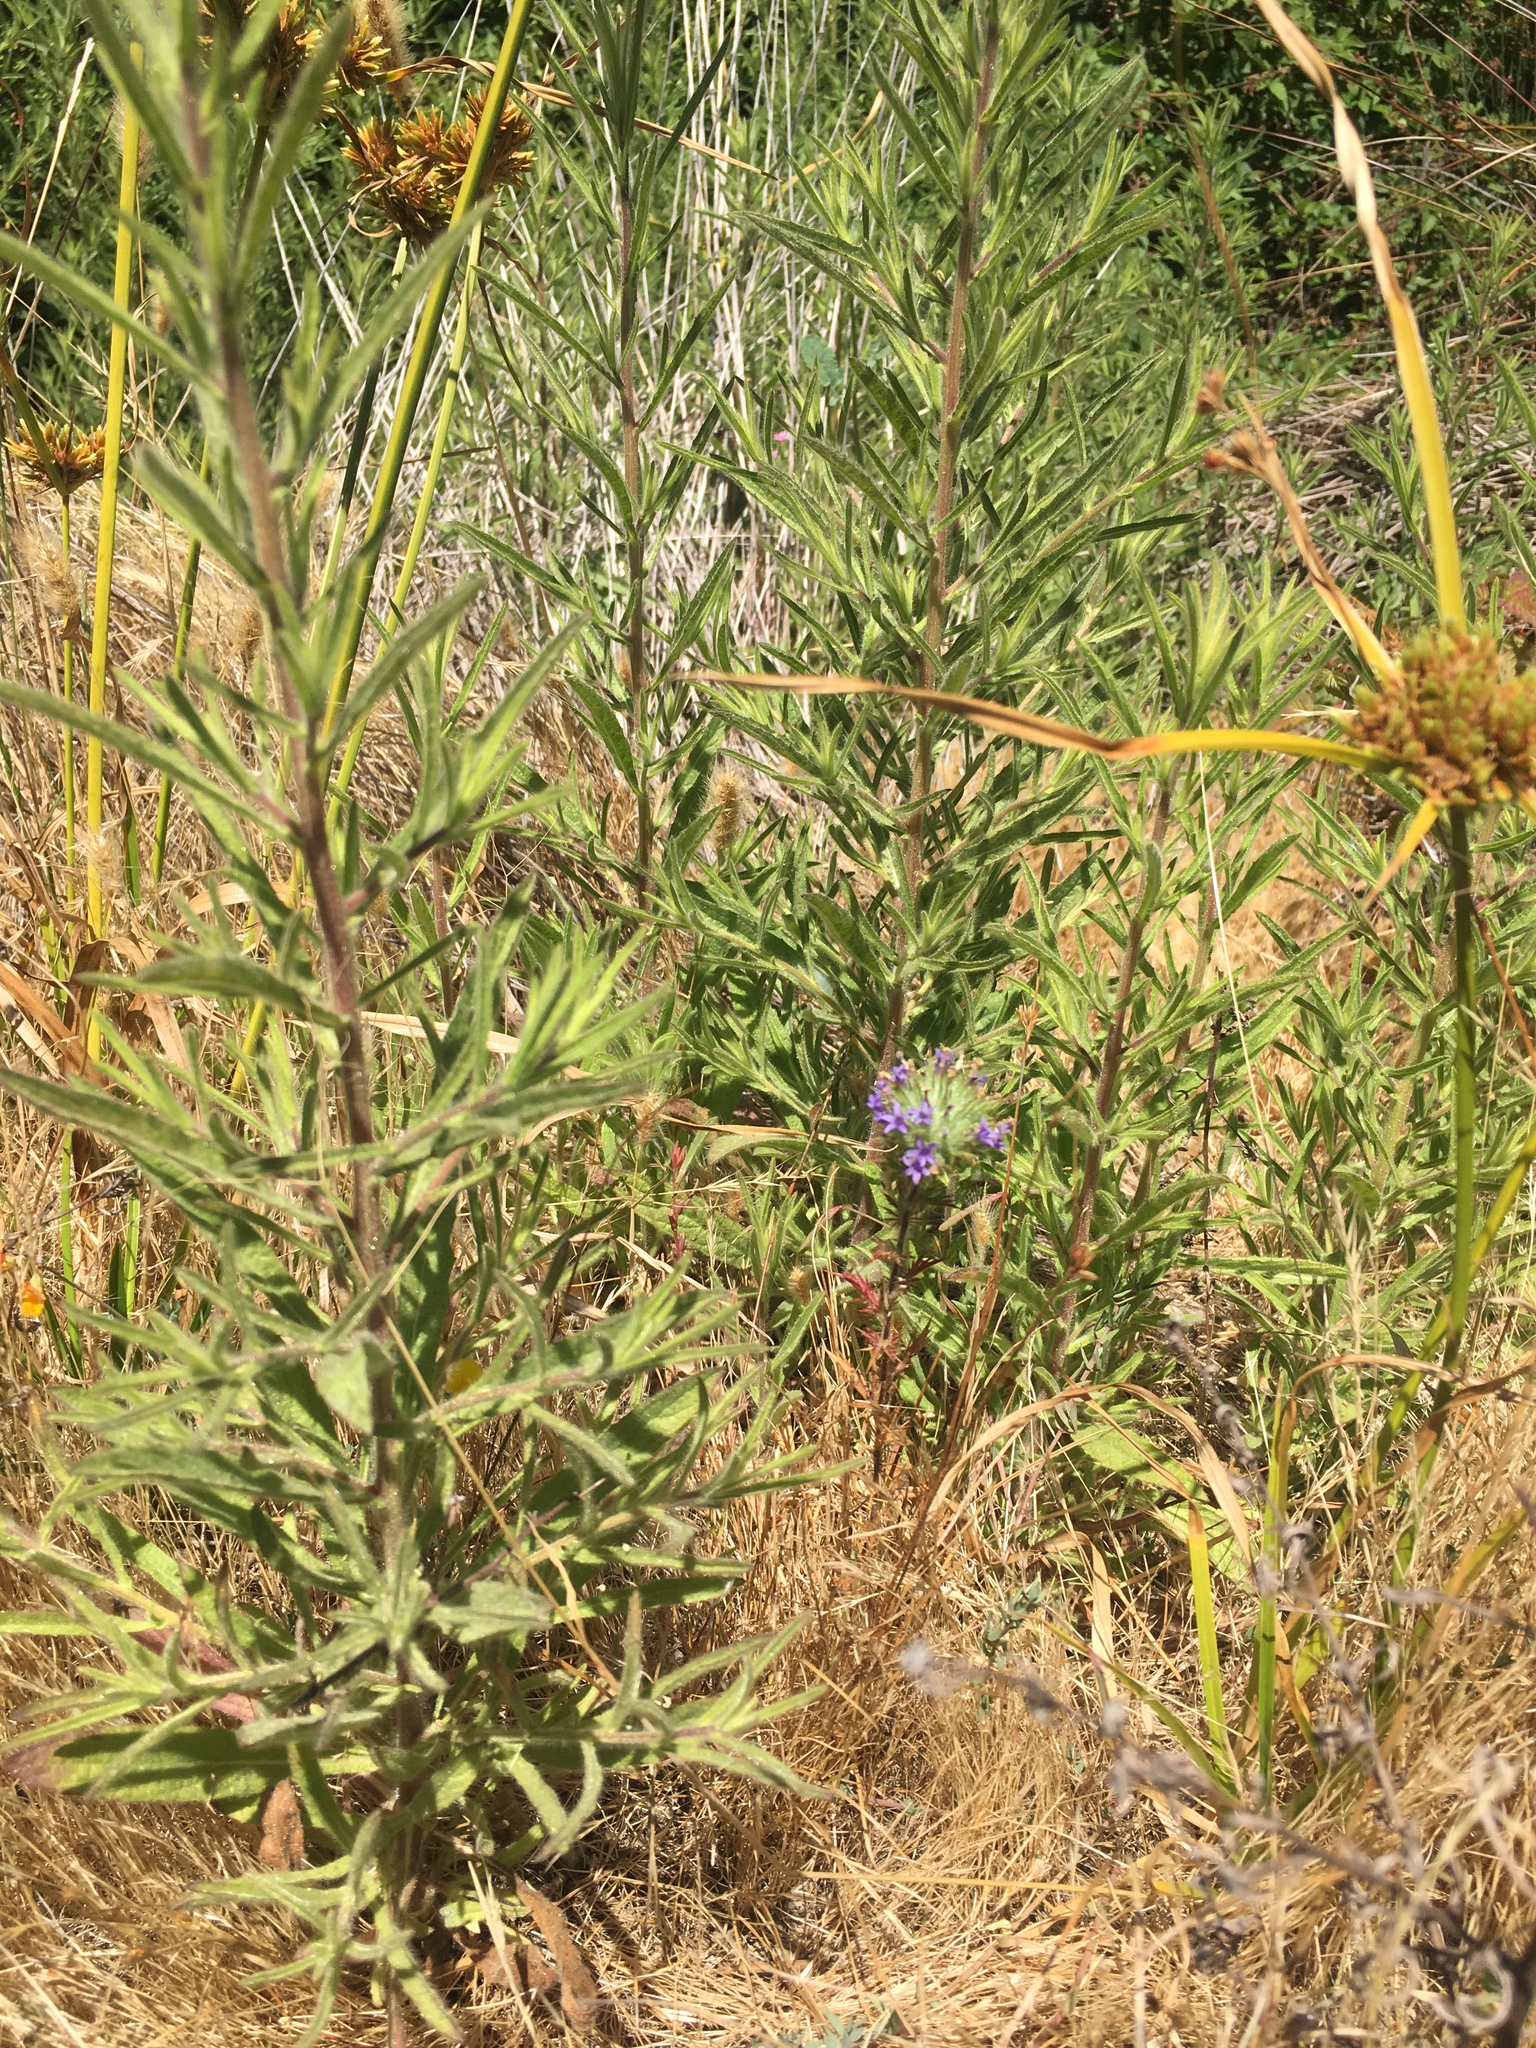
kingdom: Plantae
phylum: Tracheophyta
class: Magnoliopsida
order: Ericales
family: Polemoniaceae
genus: Navarretia
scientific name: Navarretia squarrosa
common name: Skunkweed
